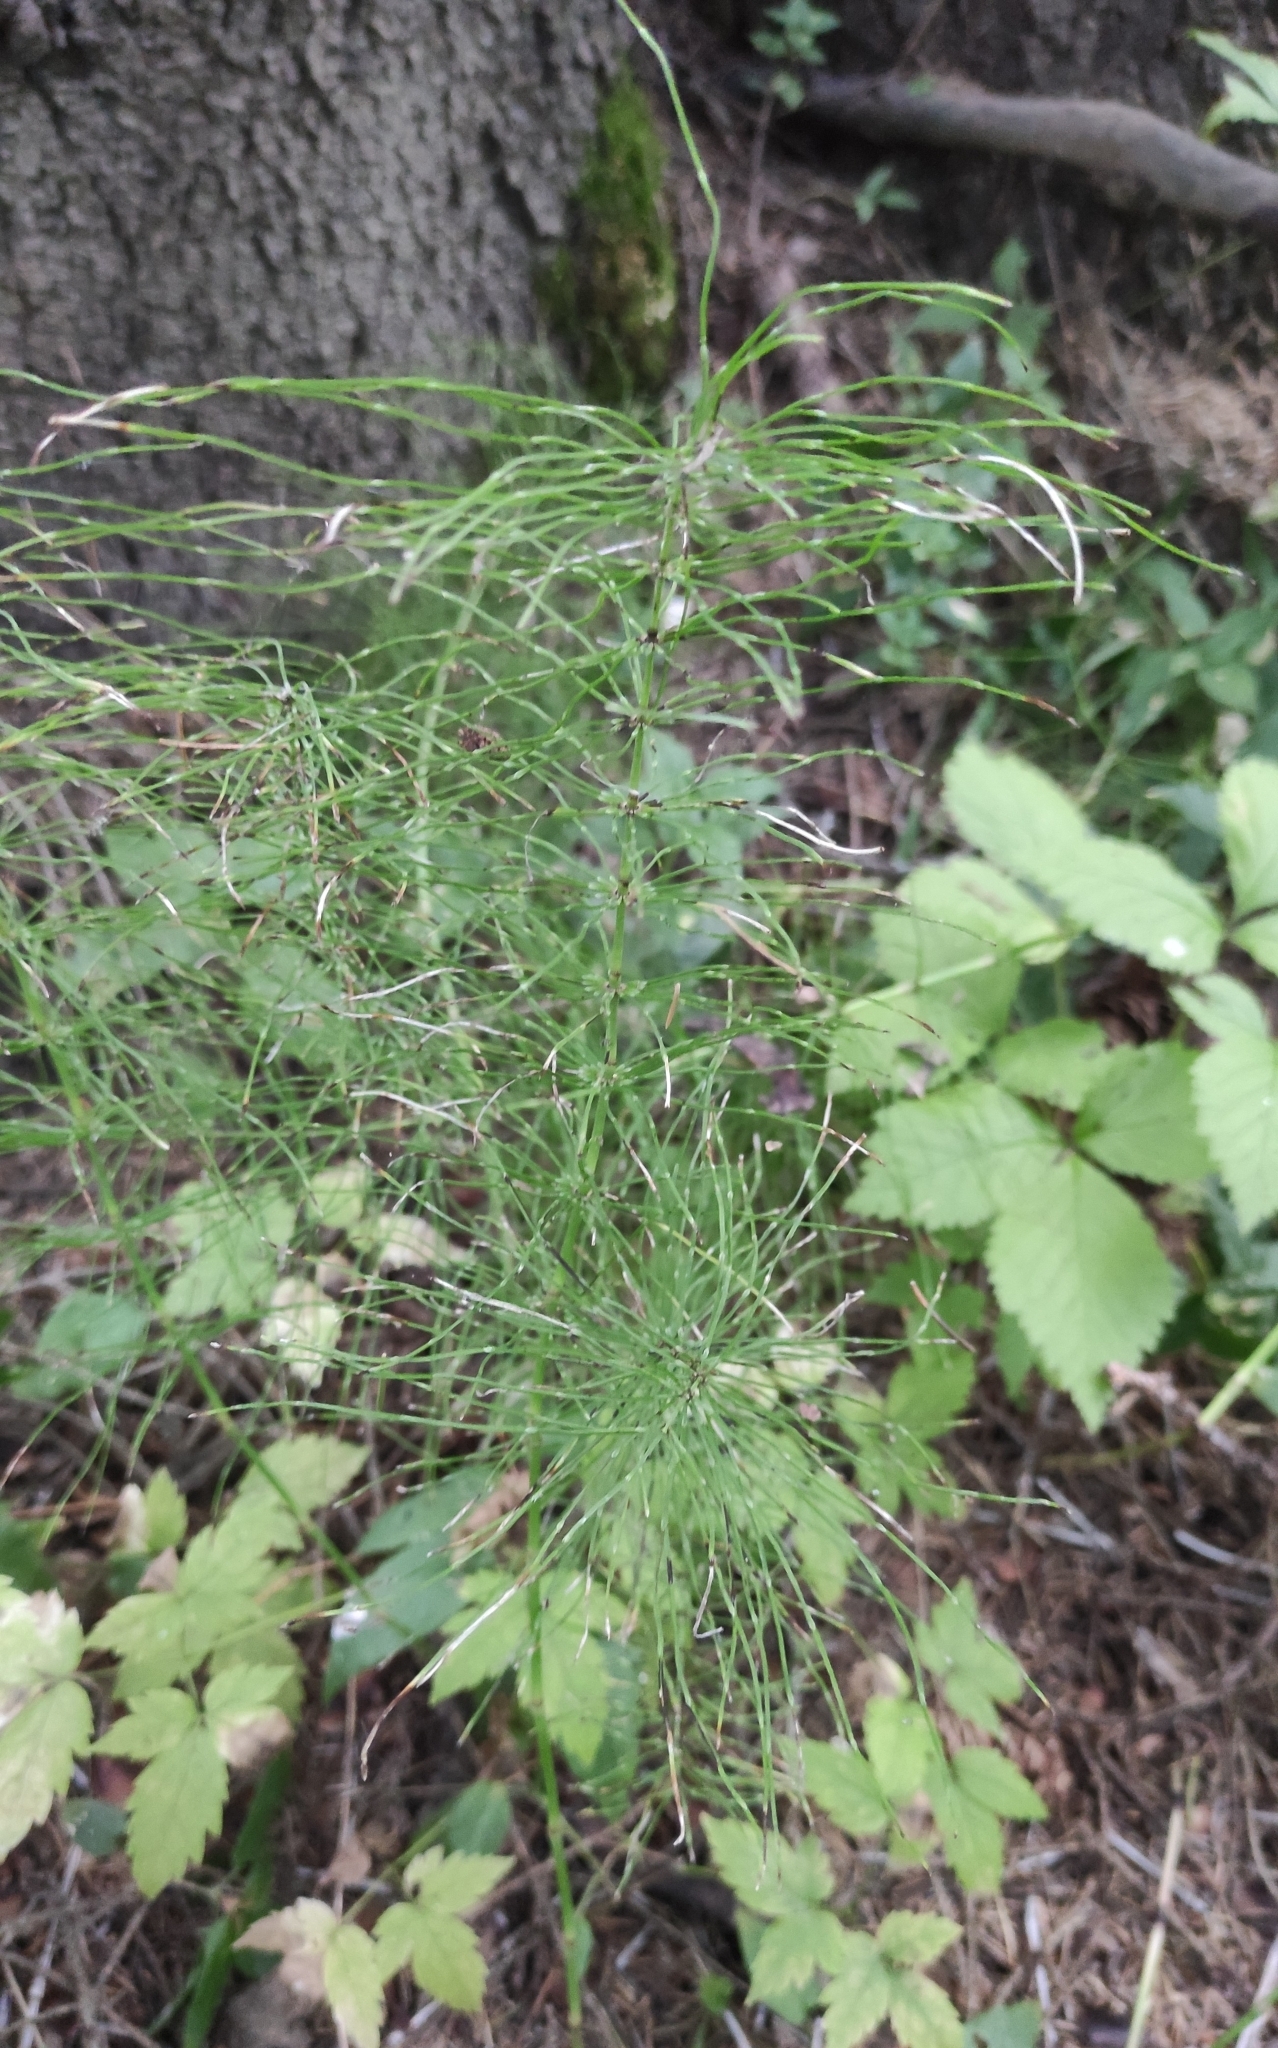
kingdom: Plantae
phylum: Tracheophyta
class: Polypodiopsida
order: Equisetales
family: Equisetaceae
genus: Equisetum
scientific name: Equisetum pratense
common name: Meadow horsetail
